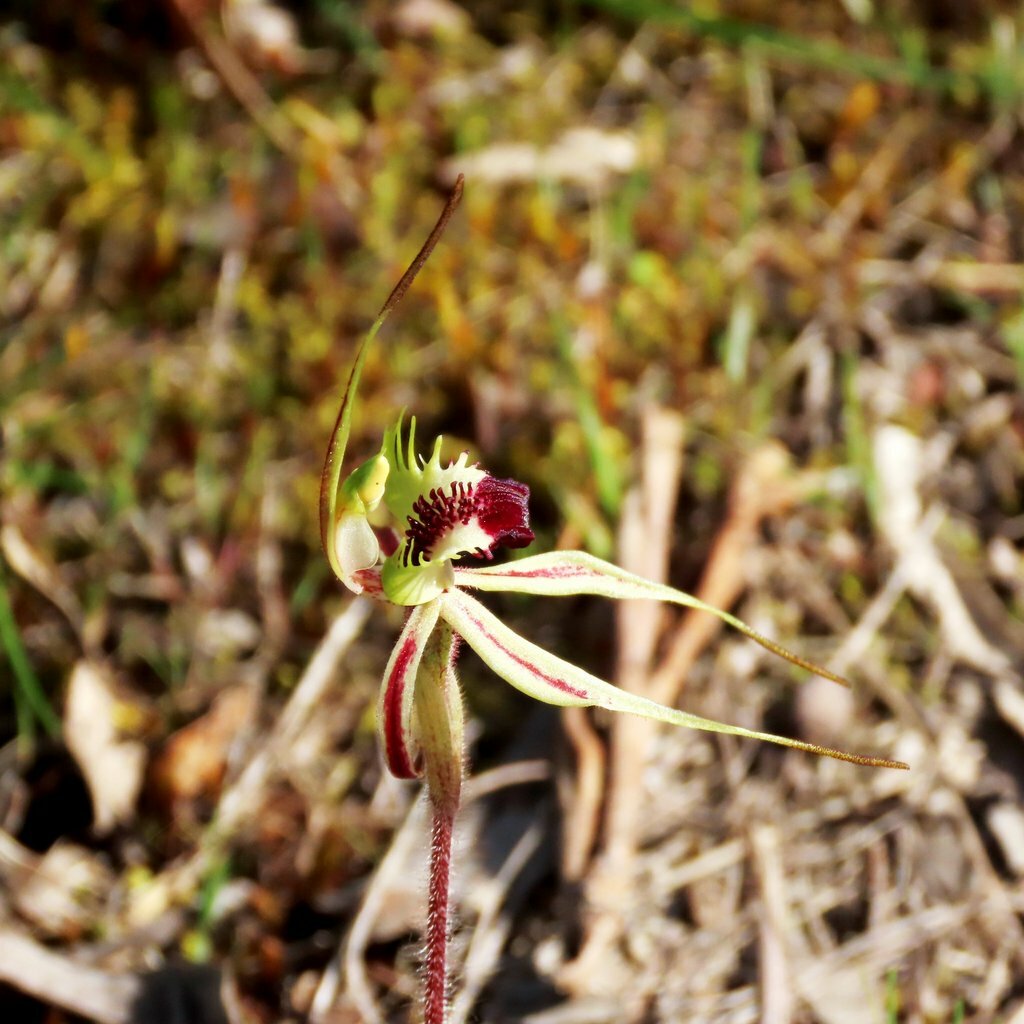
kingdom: Plantae
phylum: Tracheophyta
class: Liliopsida
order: Asparagales
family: Orchidaceae
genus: Caladenia
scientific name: Caladenia parva
